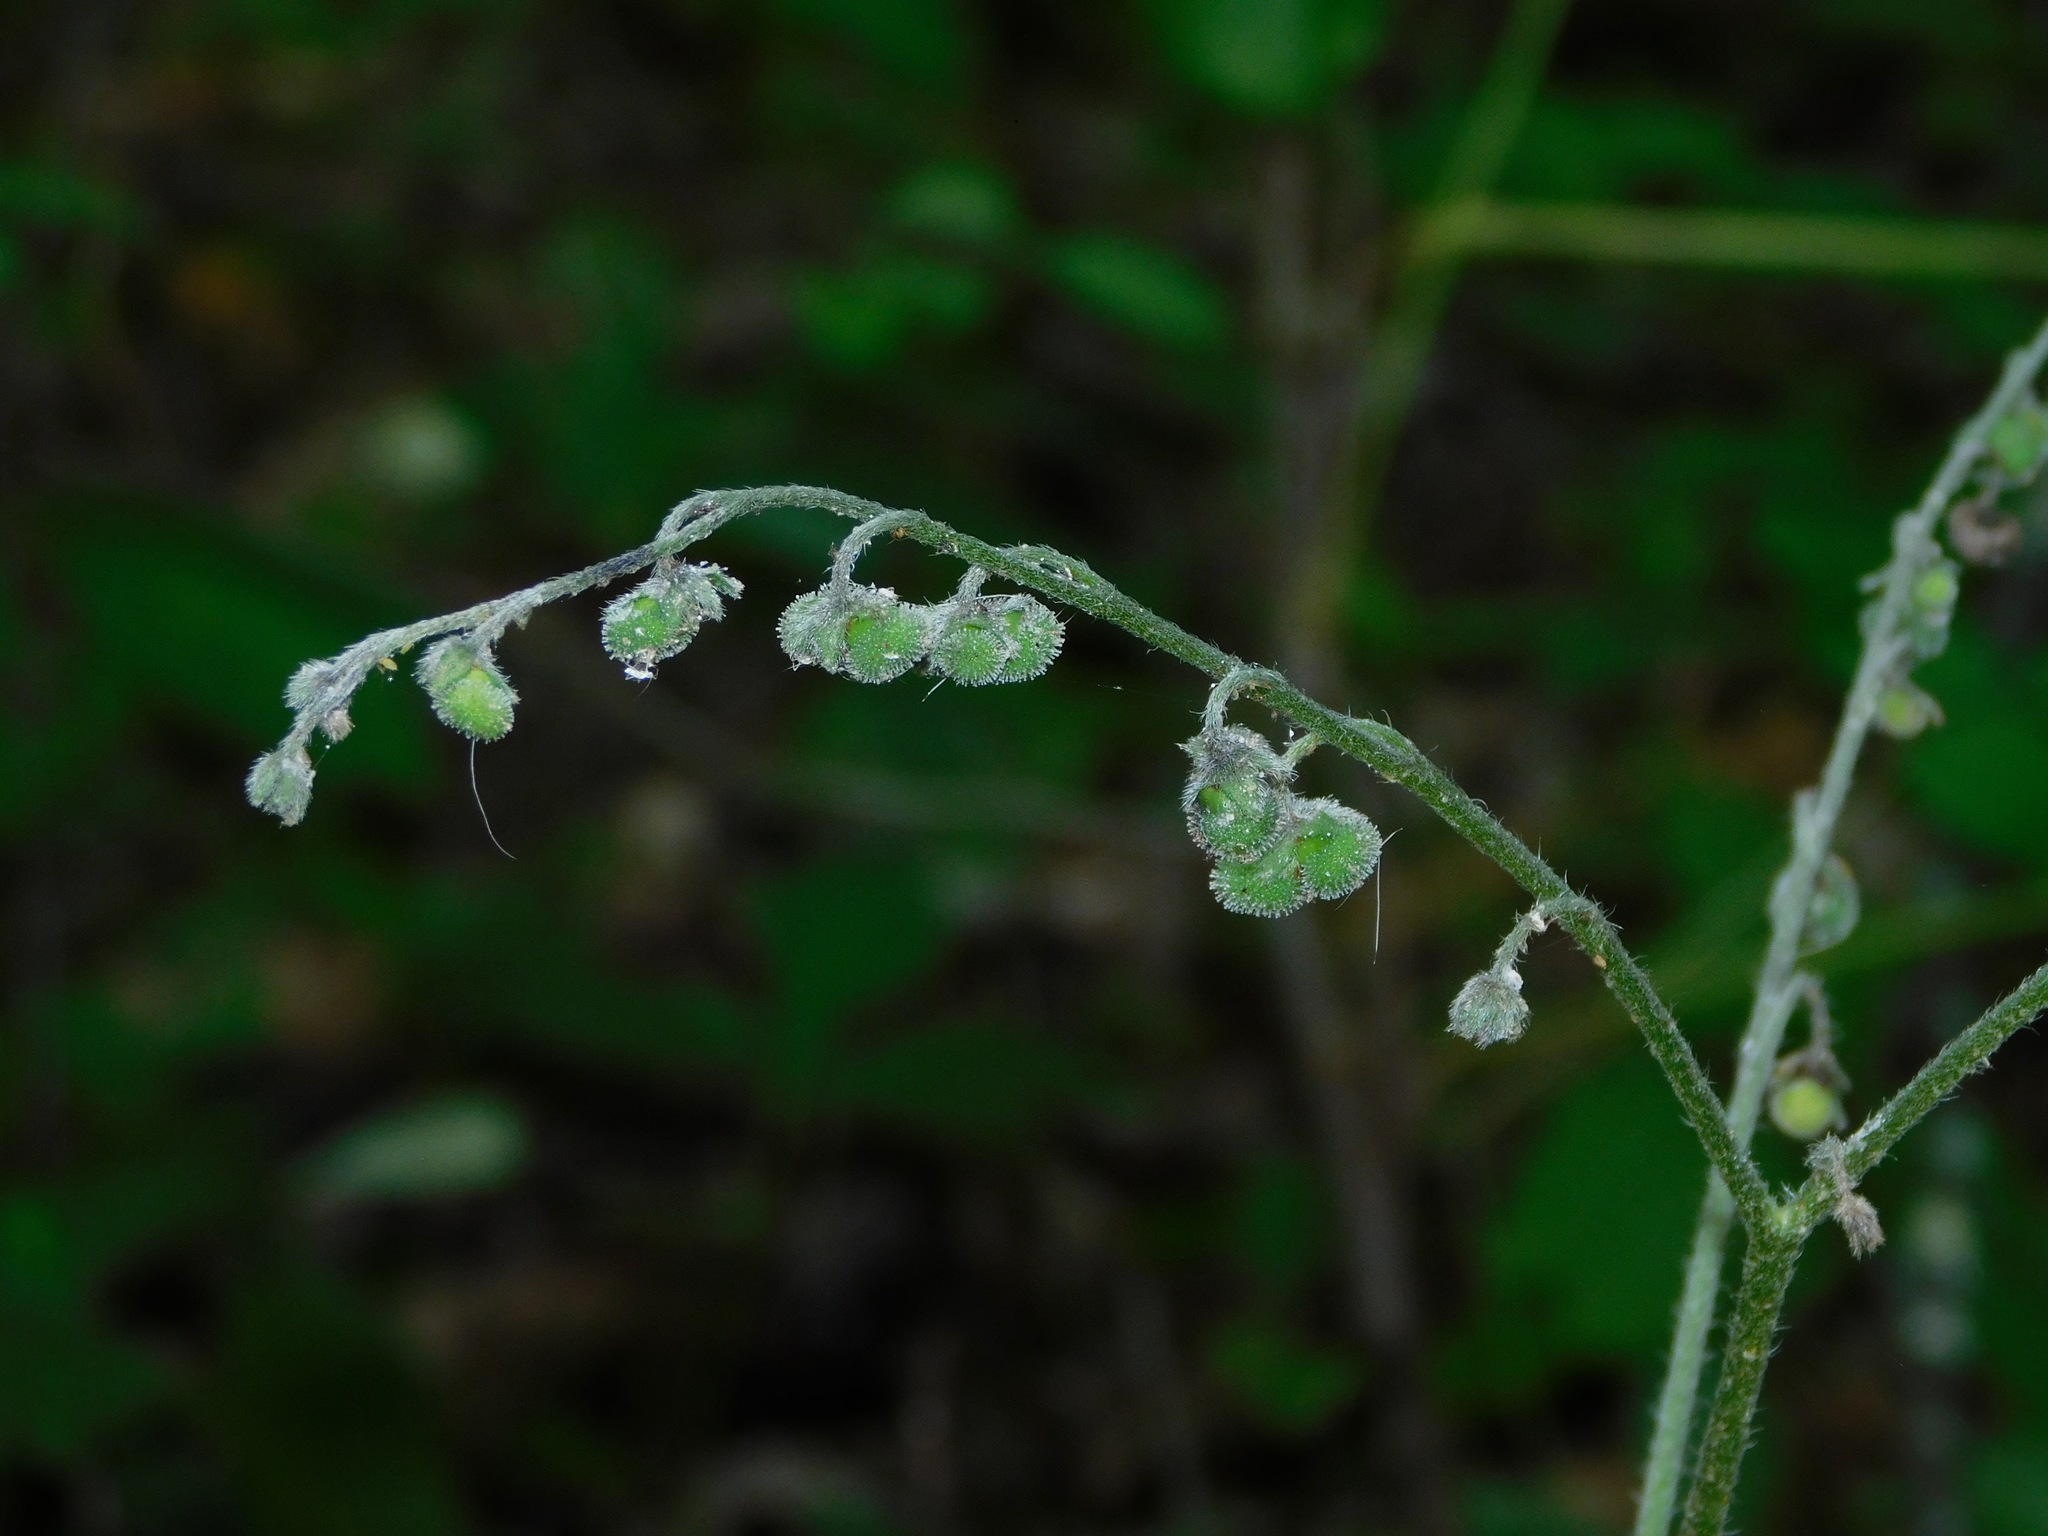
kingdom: Plantae
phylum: Tracheophyta
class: Magnoliopsida
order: Boraginales
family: Boraginaceae
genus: Andersonglossum
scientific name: Andersonglossum virginianum
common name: Wild comfrey
